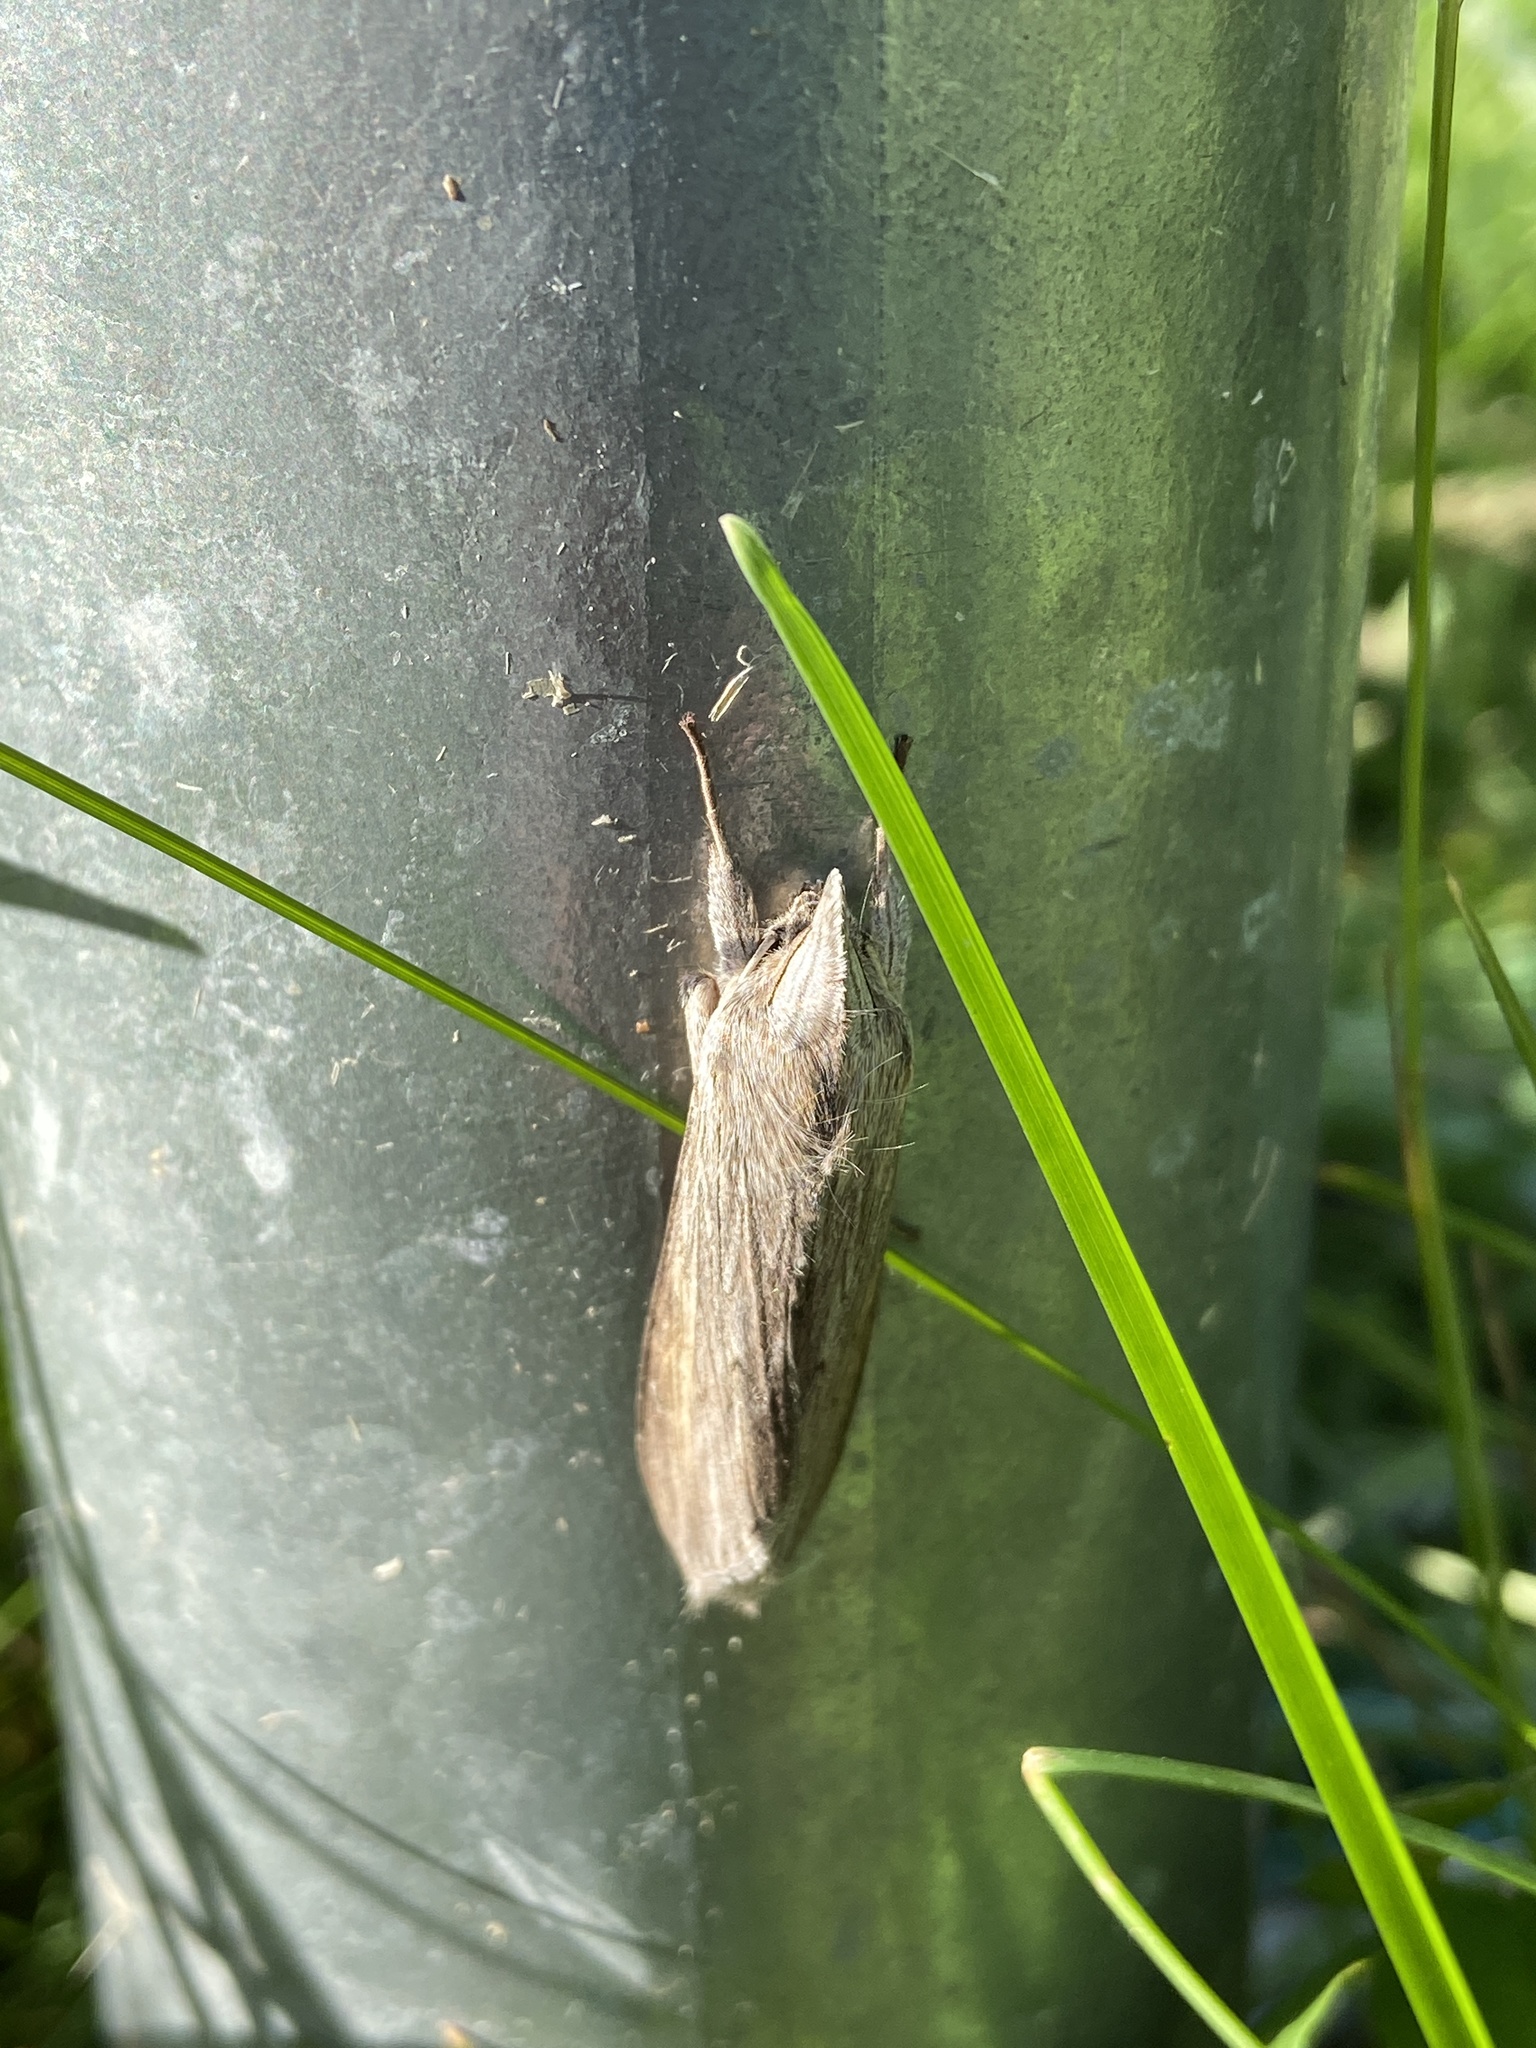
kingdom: Animalia
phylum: Arthropoda
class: Insecta
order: Lepidoptera
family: Noctuidae
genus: Cucullia
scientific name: Cucullia umbratica
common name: Shark
